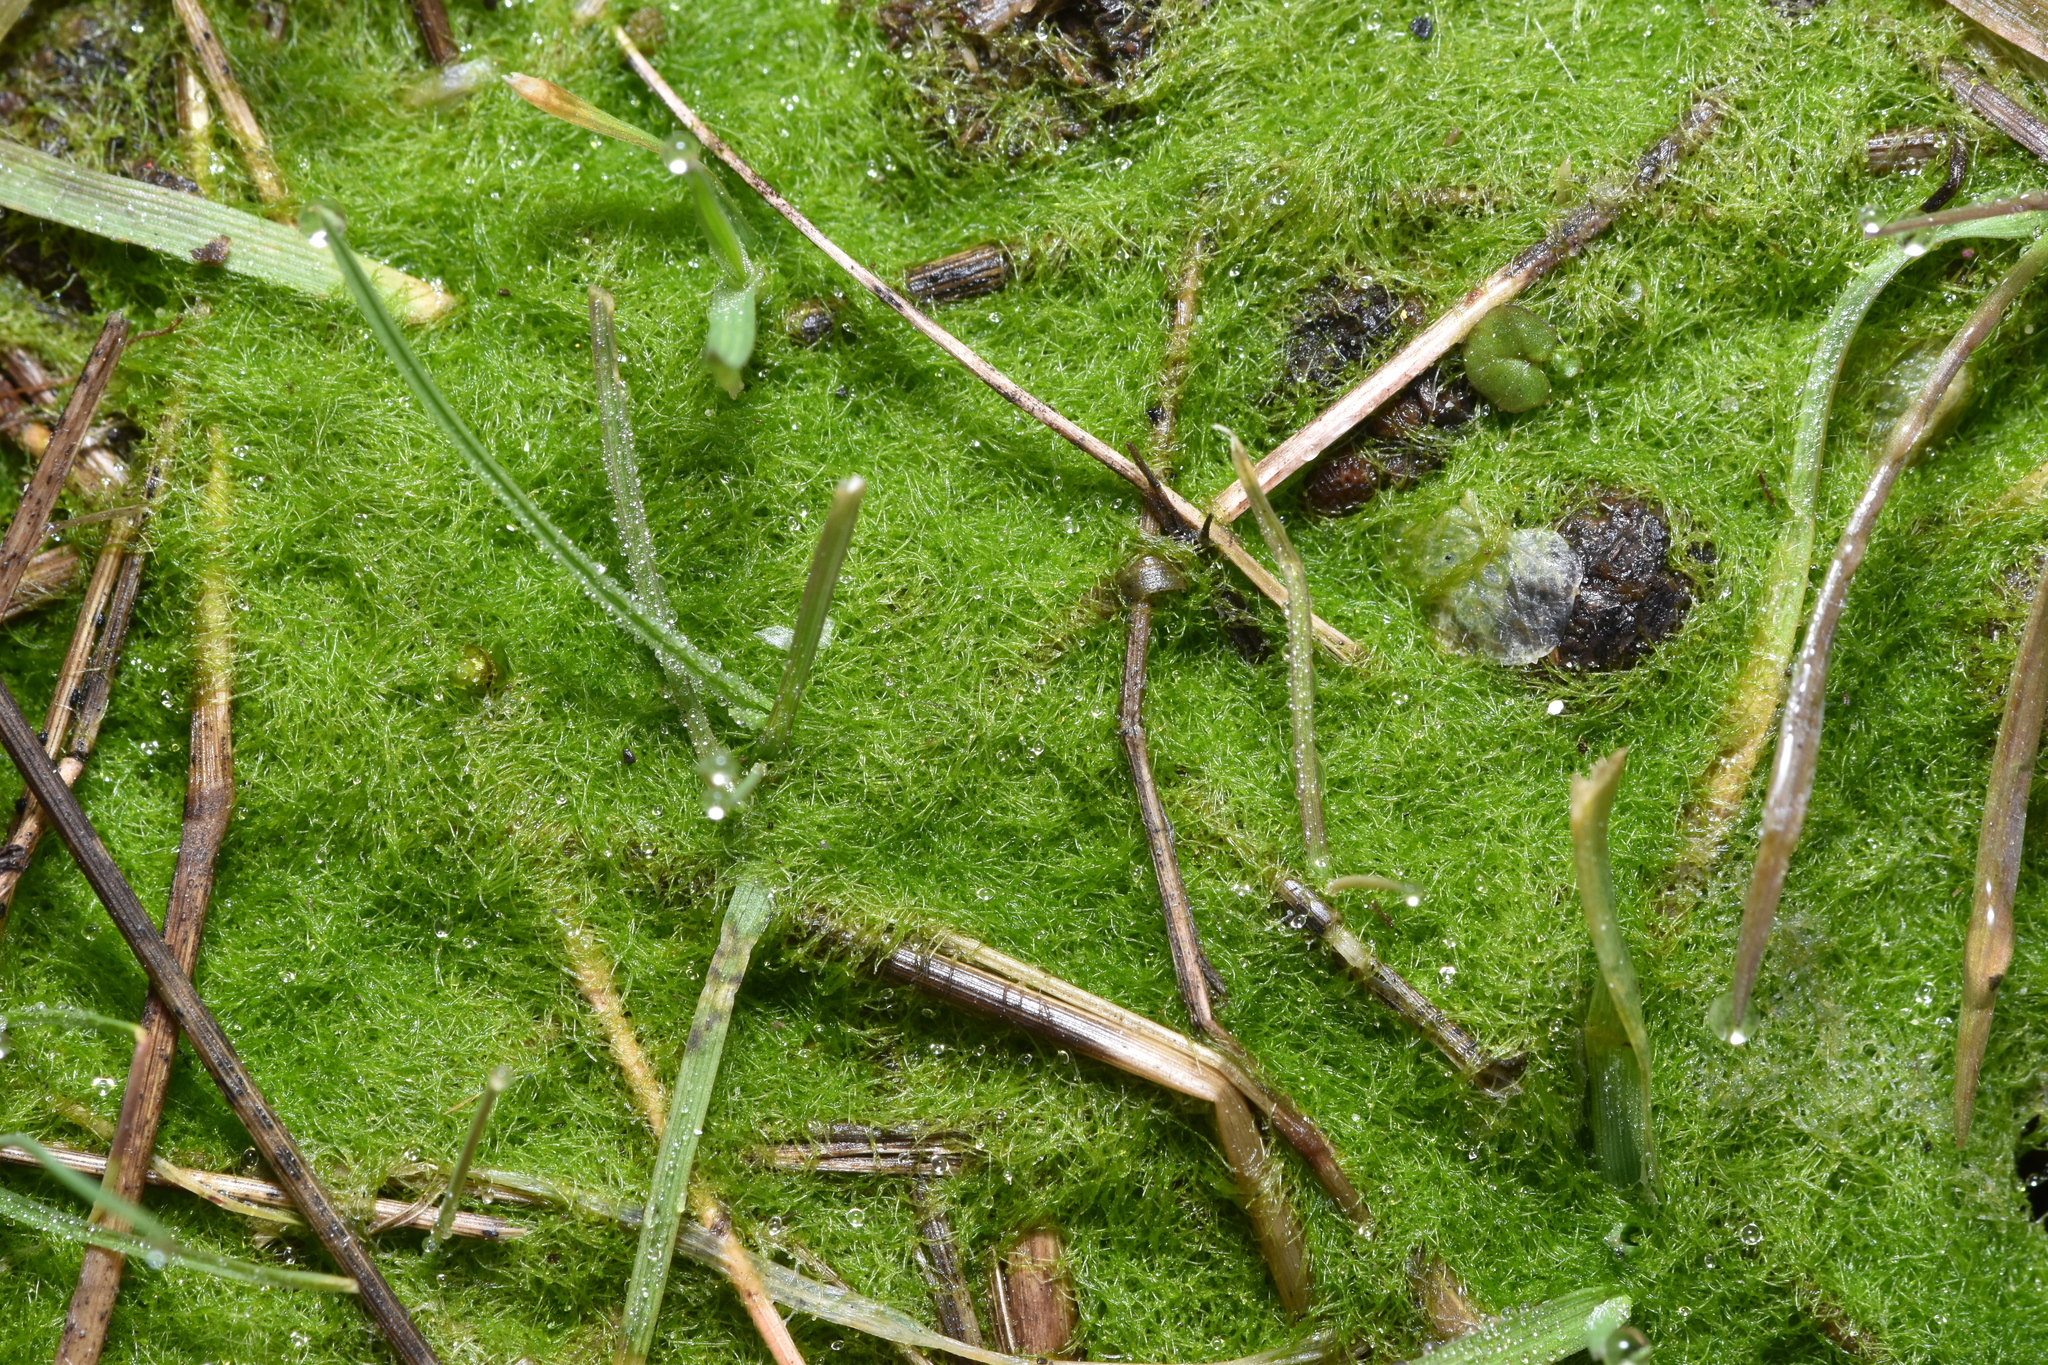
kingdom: Chromista
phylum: Ochrophyta
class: Xanthophyceae
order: Vaucheriales
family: Vaucheriaceae
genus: Vaucheria
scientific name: Vaucheria
